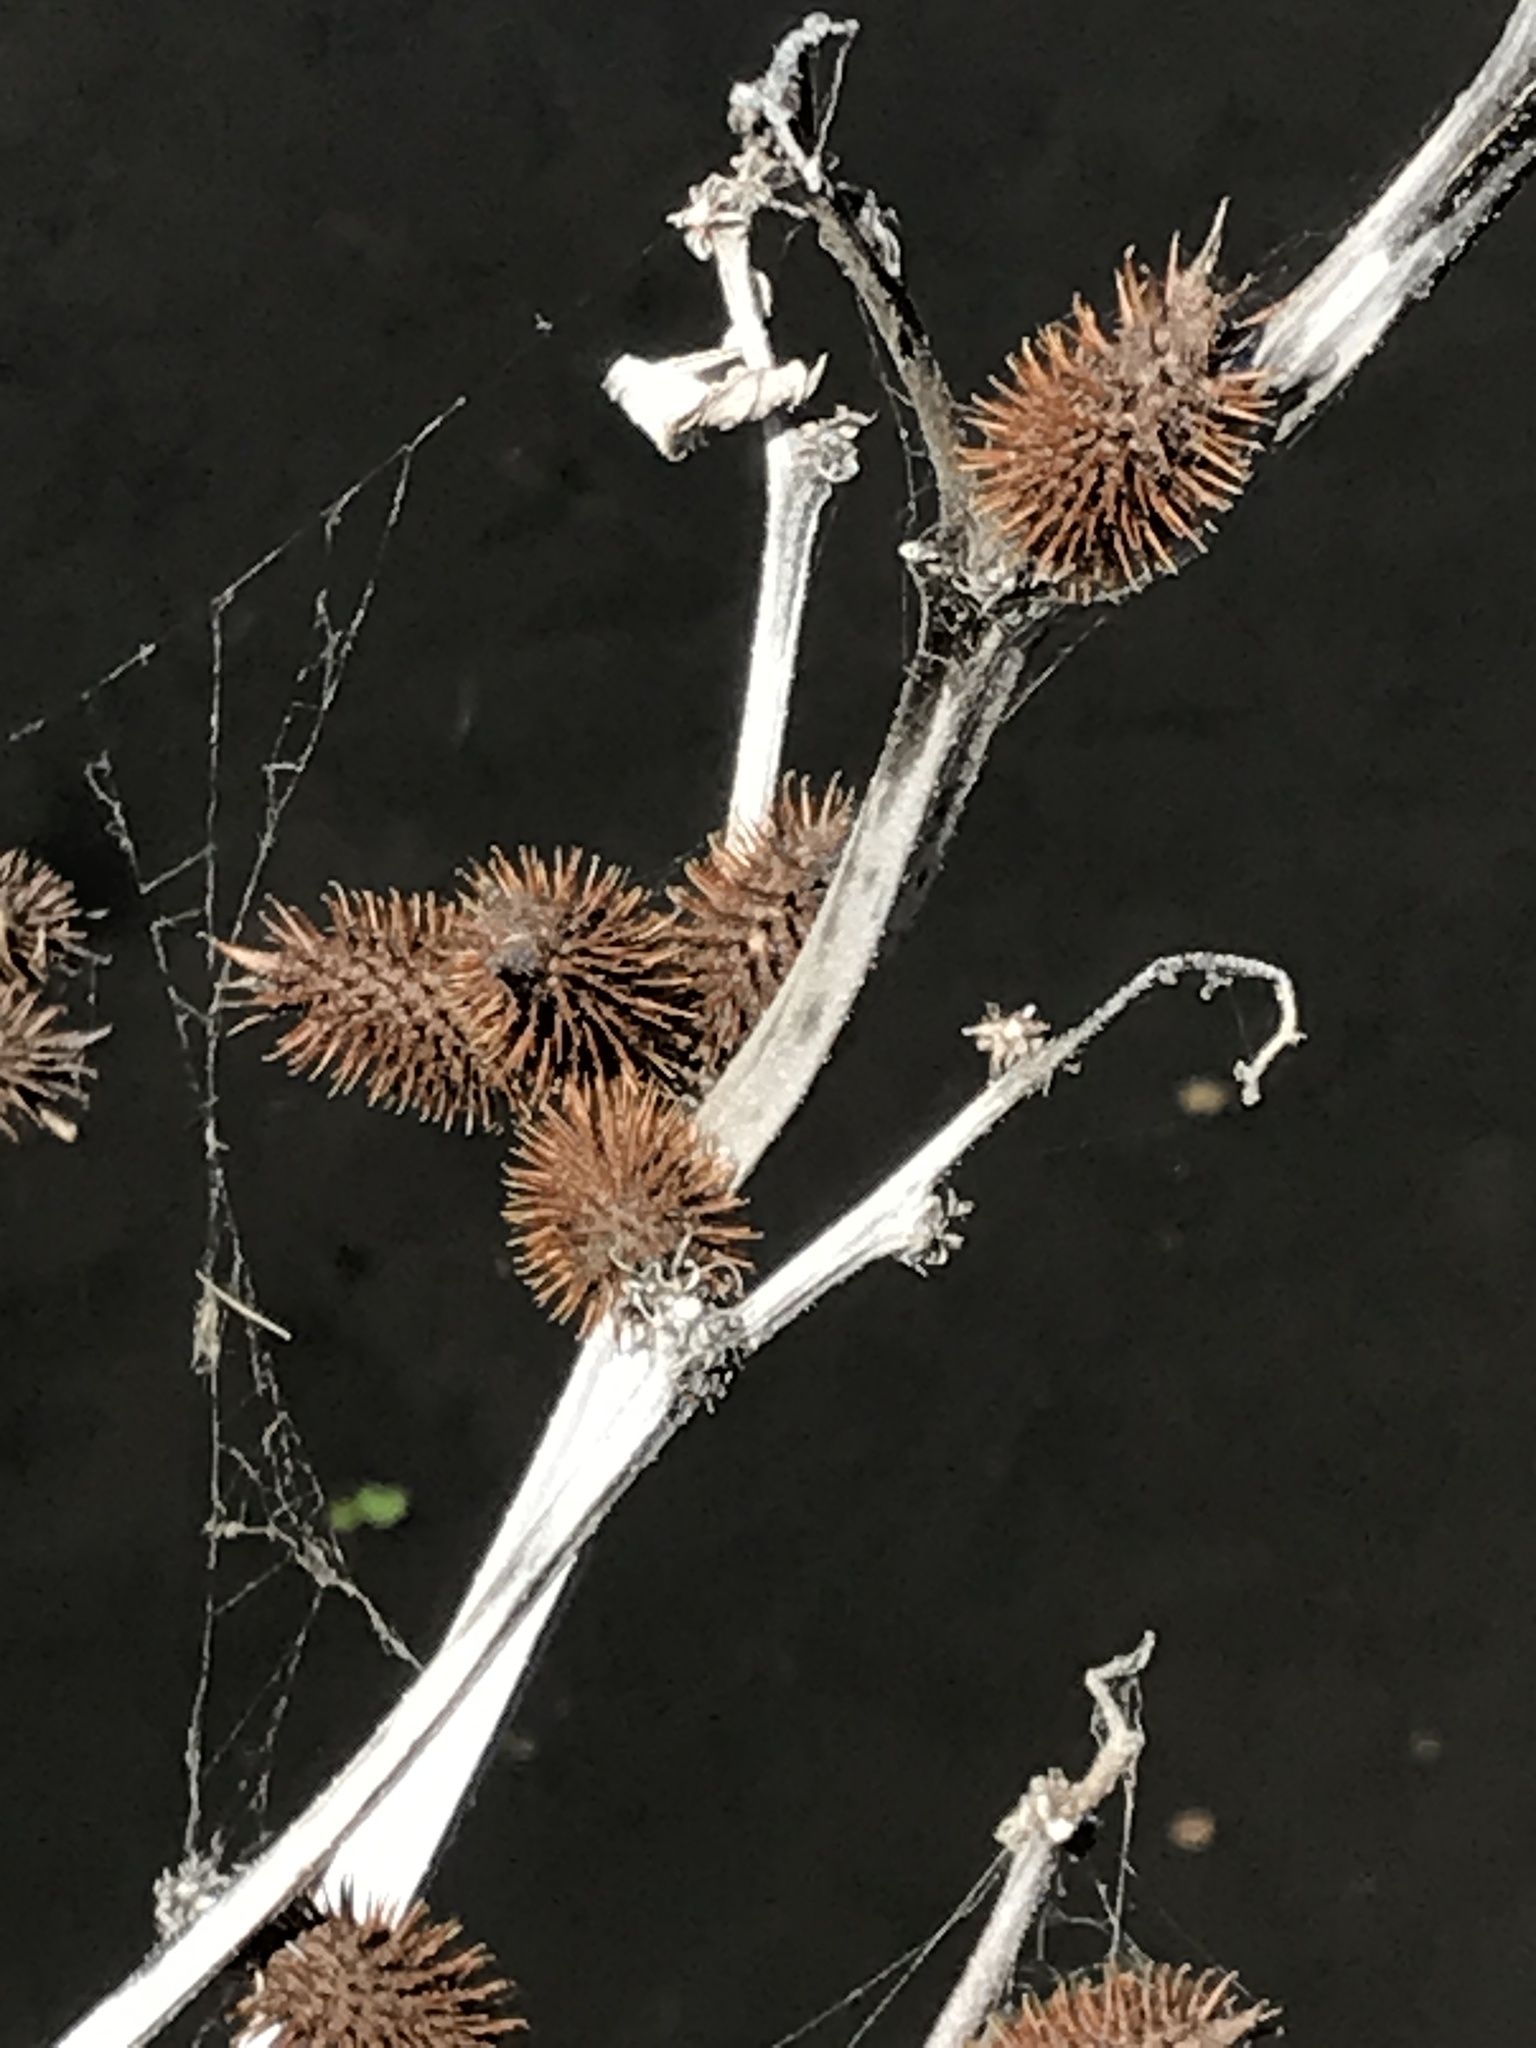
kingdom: Plantae
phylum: Tracheophyta
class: Magnoliopsida
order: Asterales
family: Asteraceae
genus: Xanthium
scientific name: Xanthium strumarium
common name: Rough cocklebur
